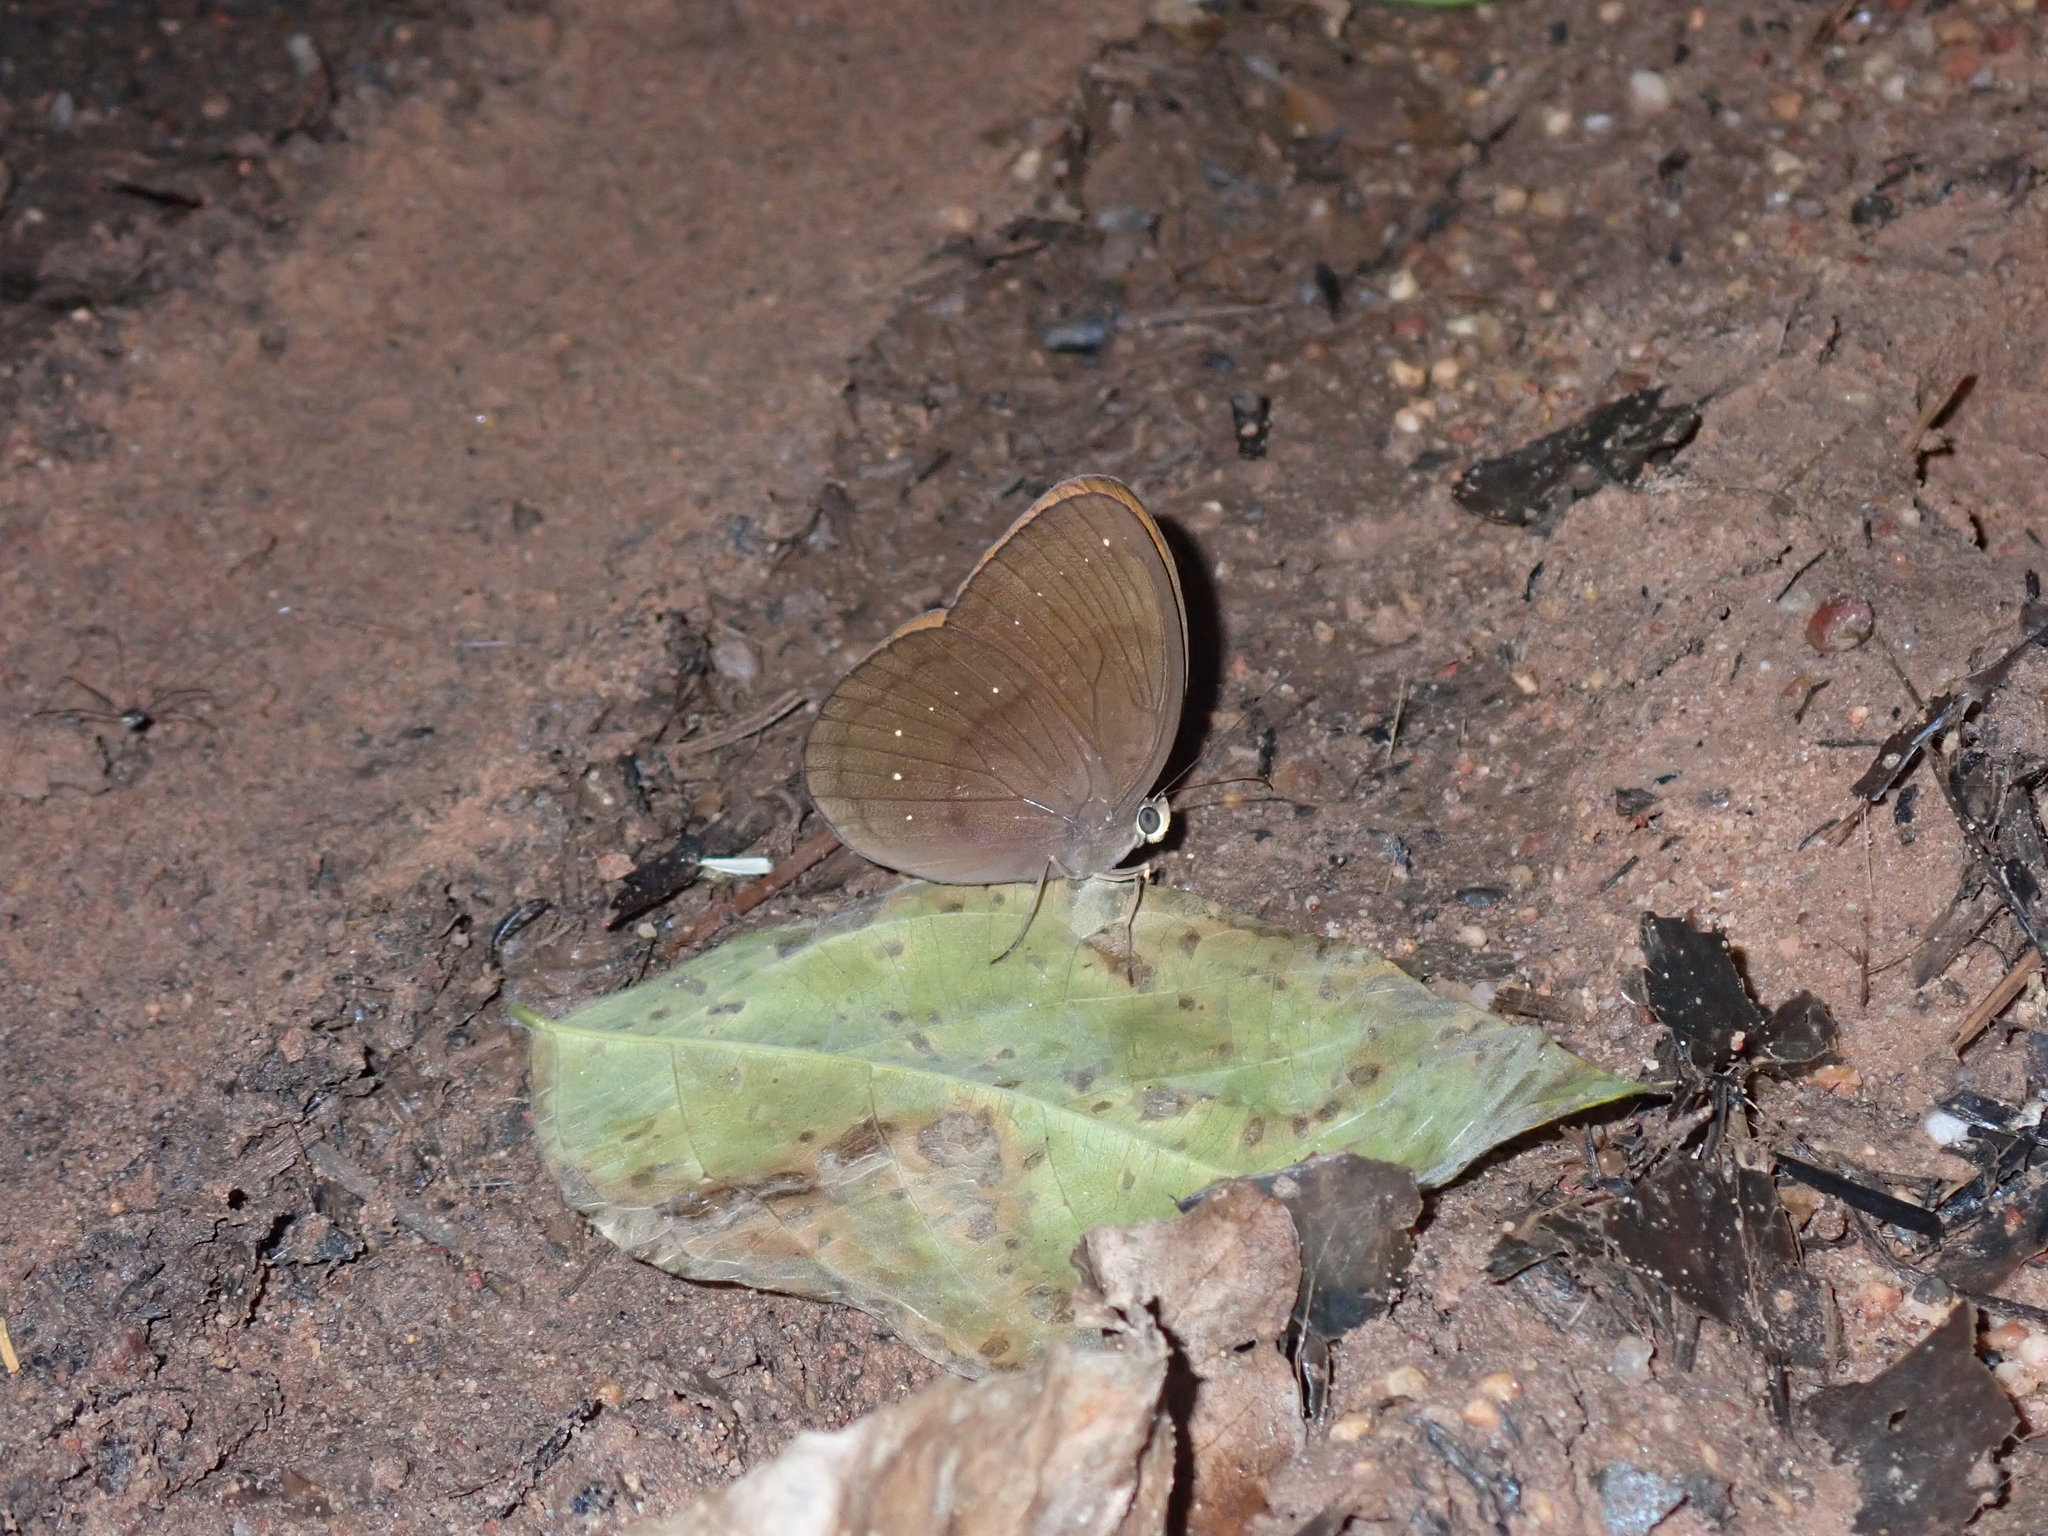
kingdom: Animalia
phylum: Arthropoda
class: Insecta
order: Lepidoptera
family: Nymphalidae
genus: Faunis
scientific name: Faunis canens
